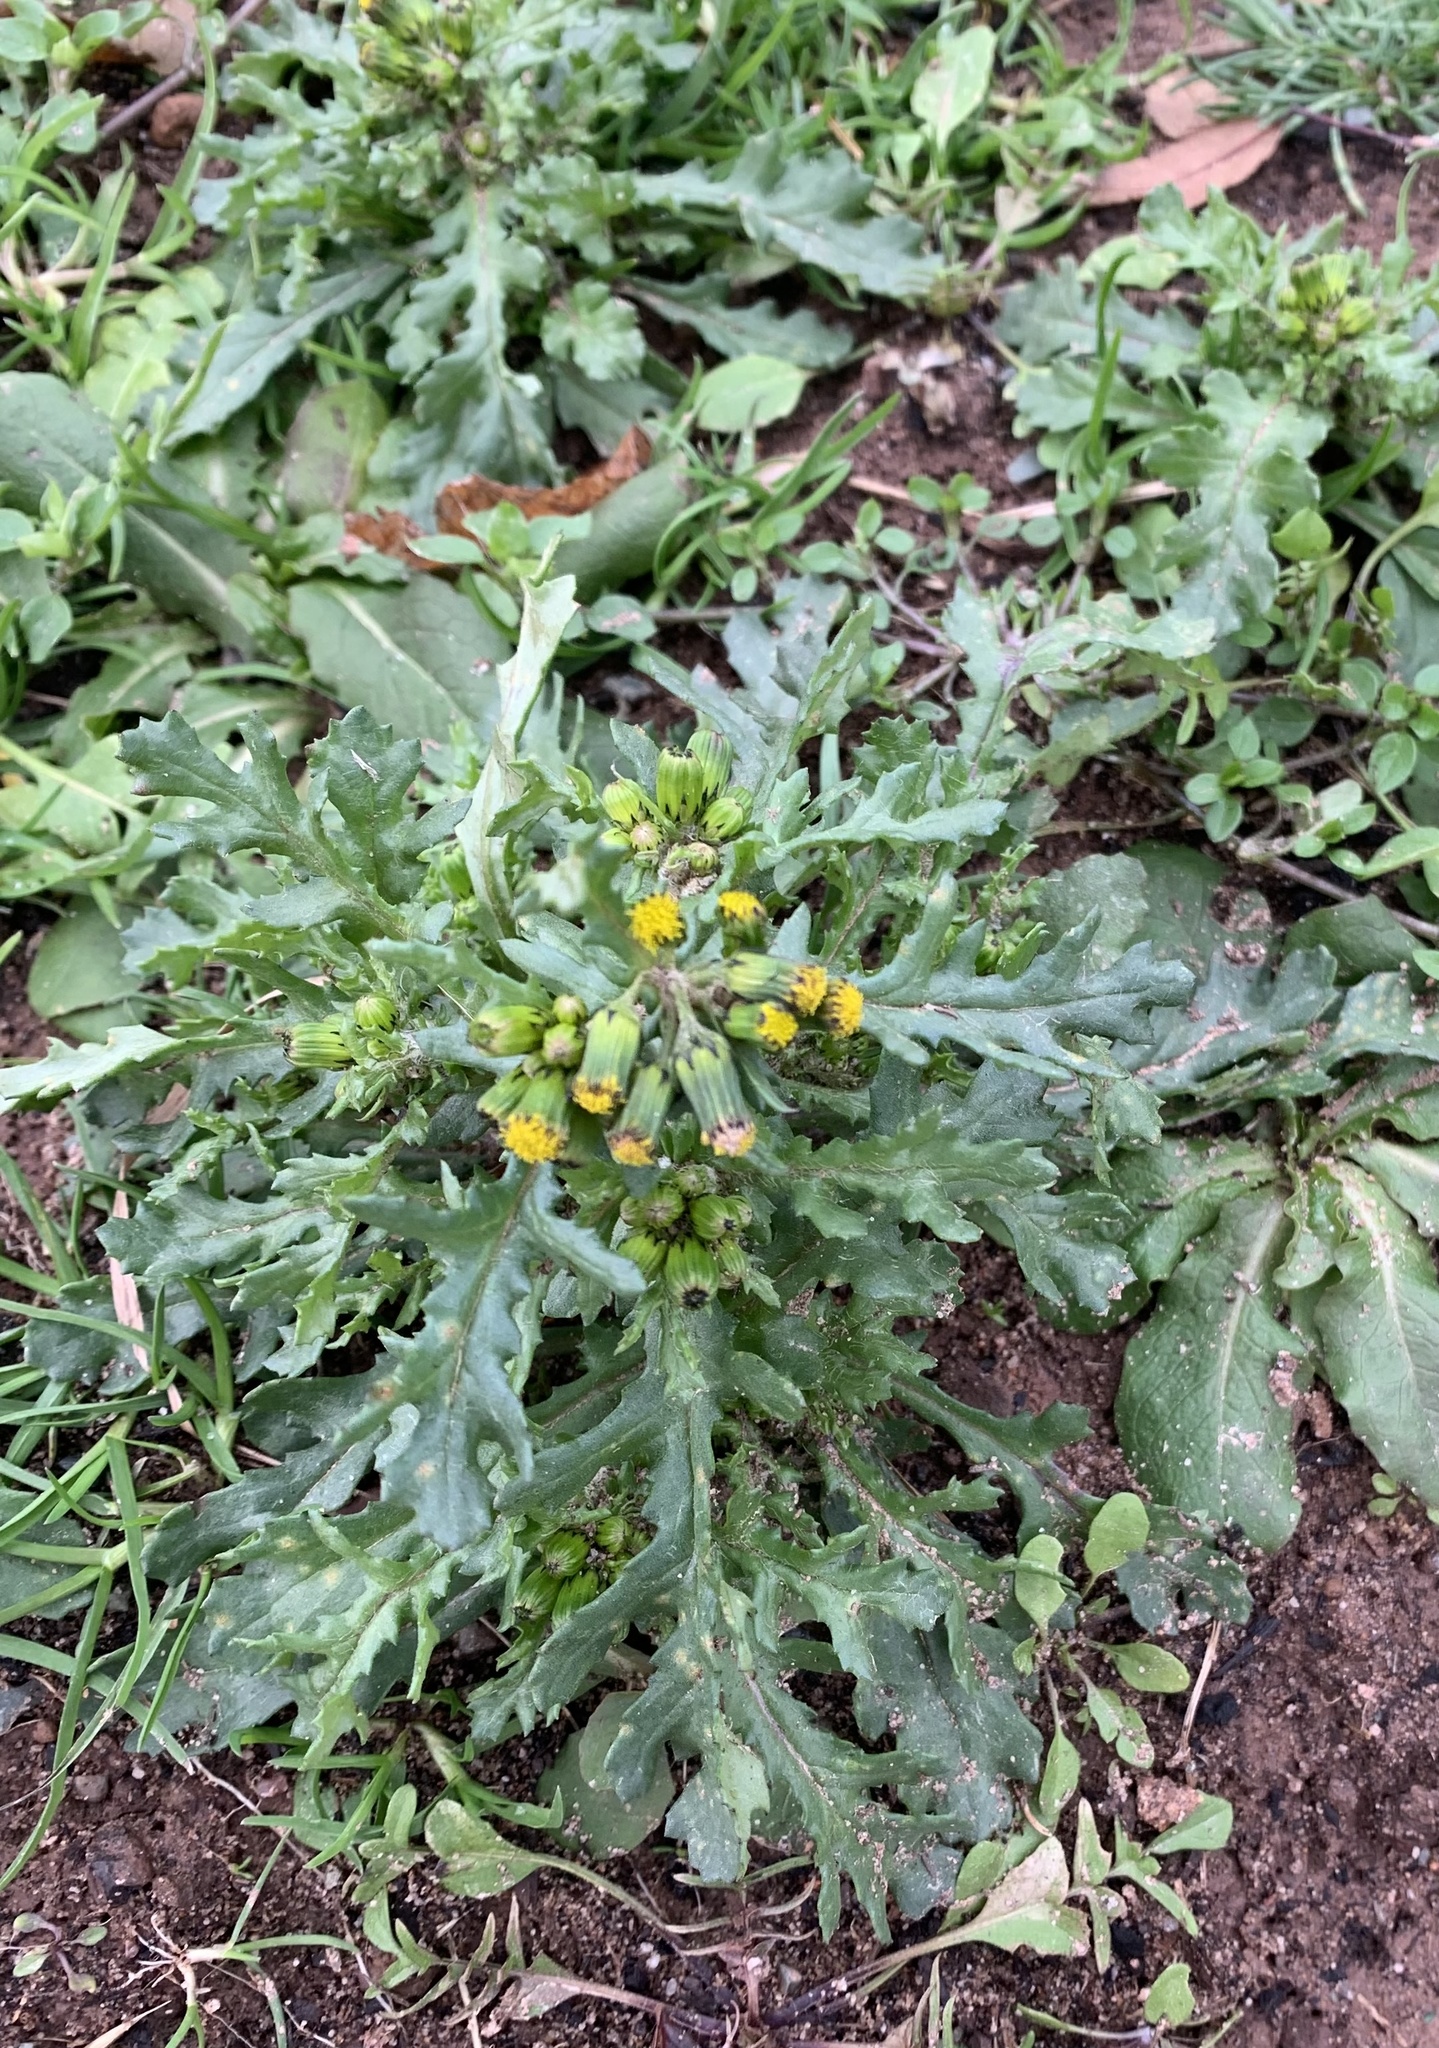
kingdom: Plantae
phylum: Tracheophyta
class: Magnoliopsida
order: Asterales
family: Asteraceae
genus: Senecio
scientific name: Senecio vulgaris
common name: Old-man-in-the-spring
